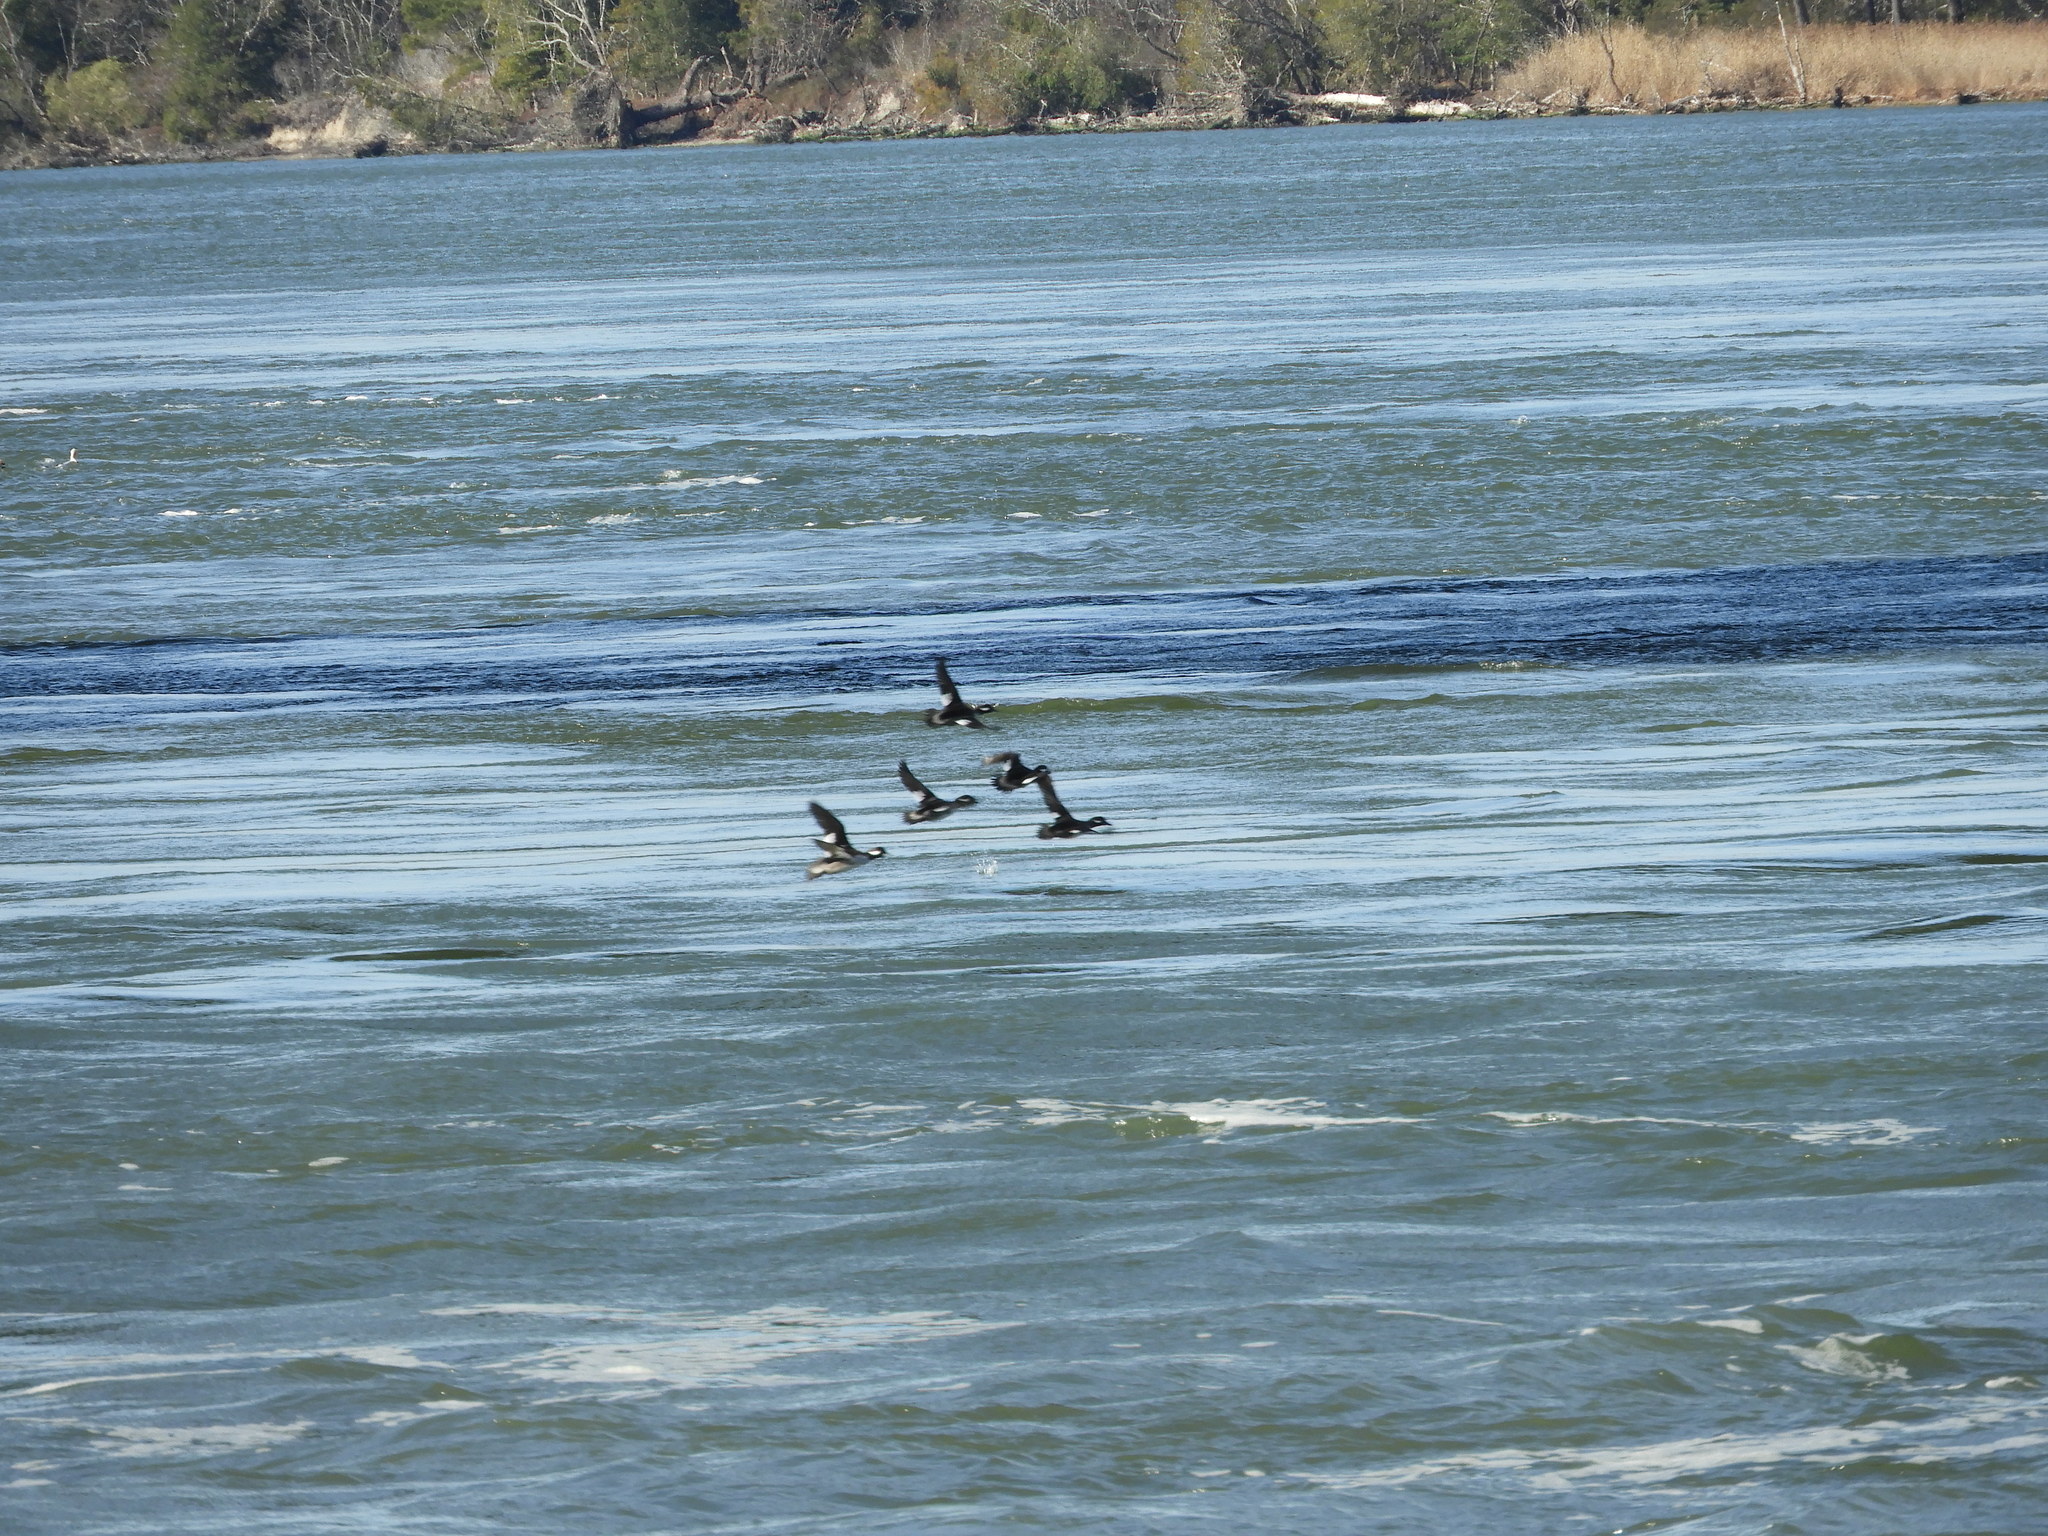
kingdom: Animalia
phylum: Chordata
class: Aves
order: Anseriformes
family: Anatidae
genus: Bucephala
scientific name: Bucephala albeola
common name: Bufflehead
